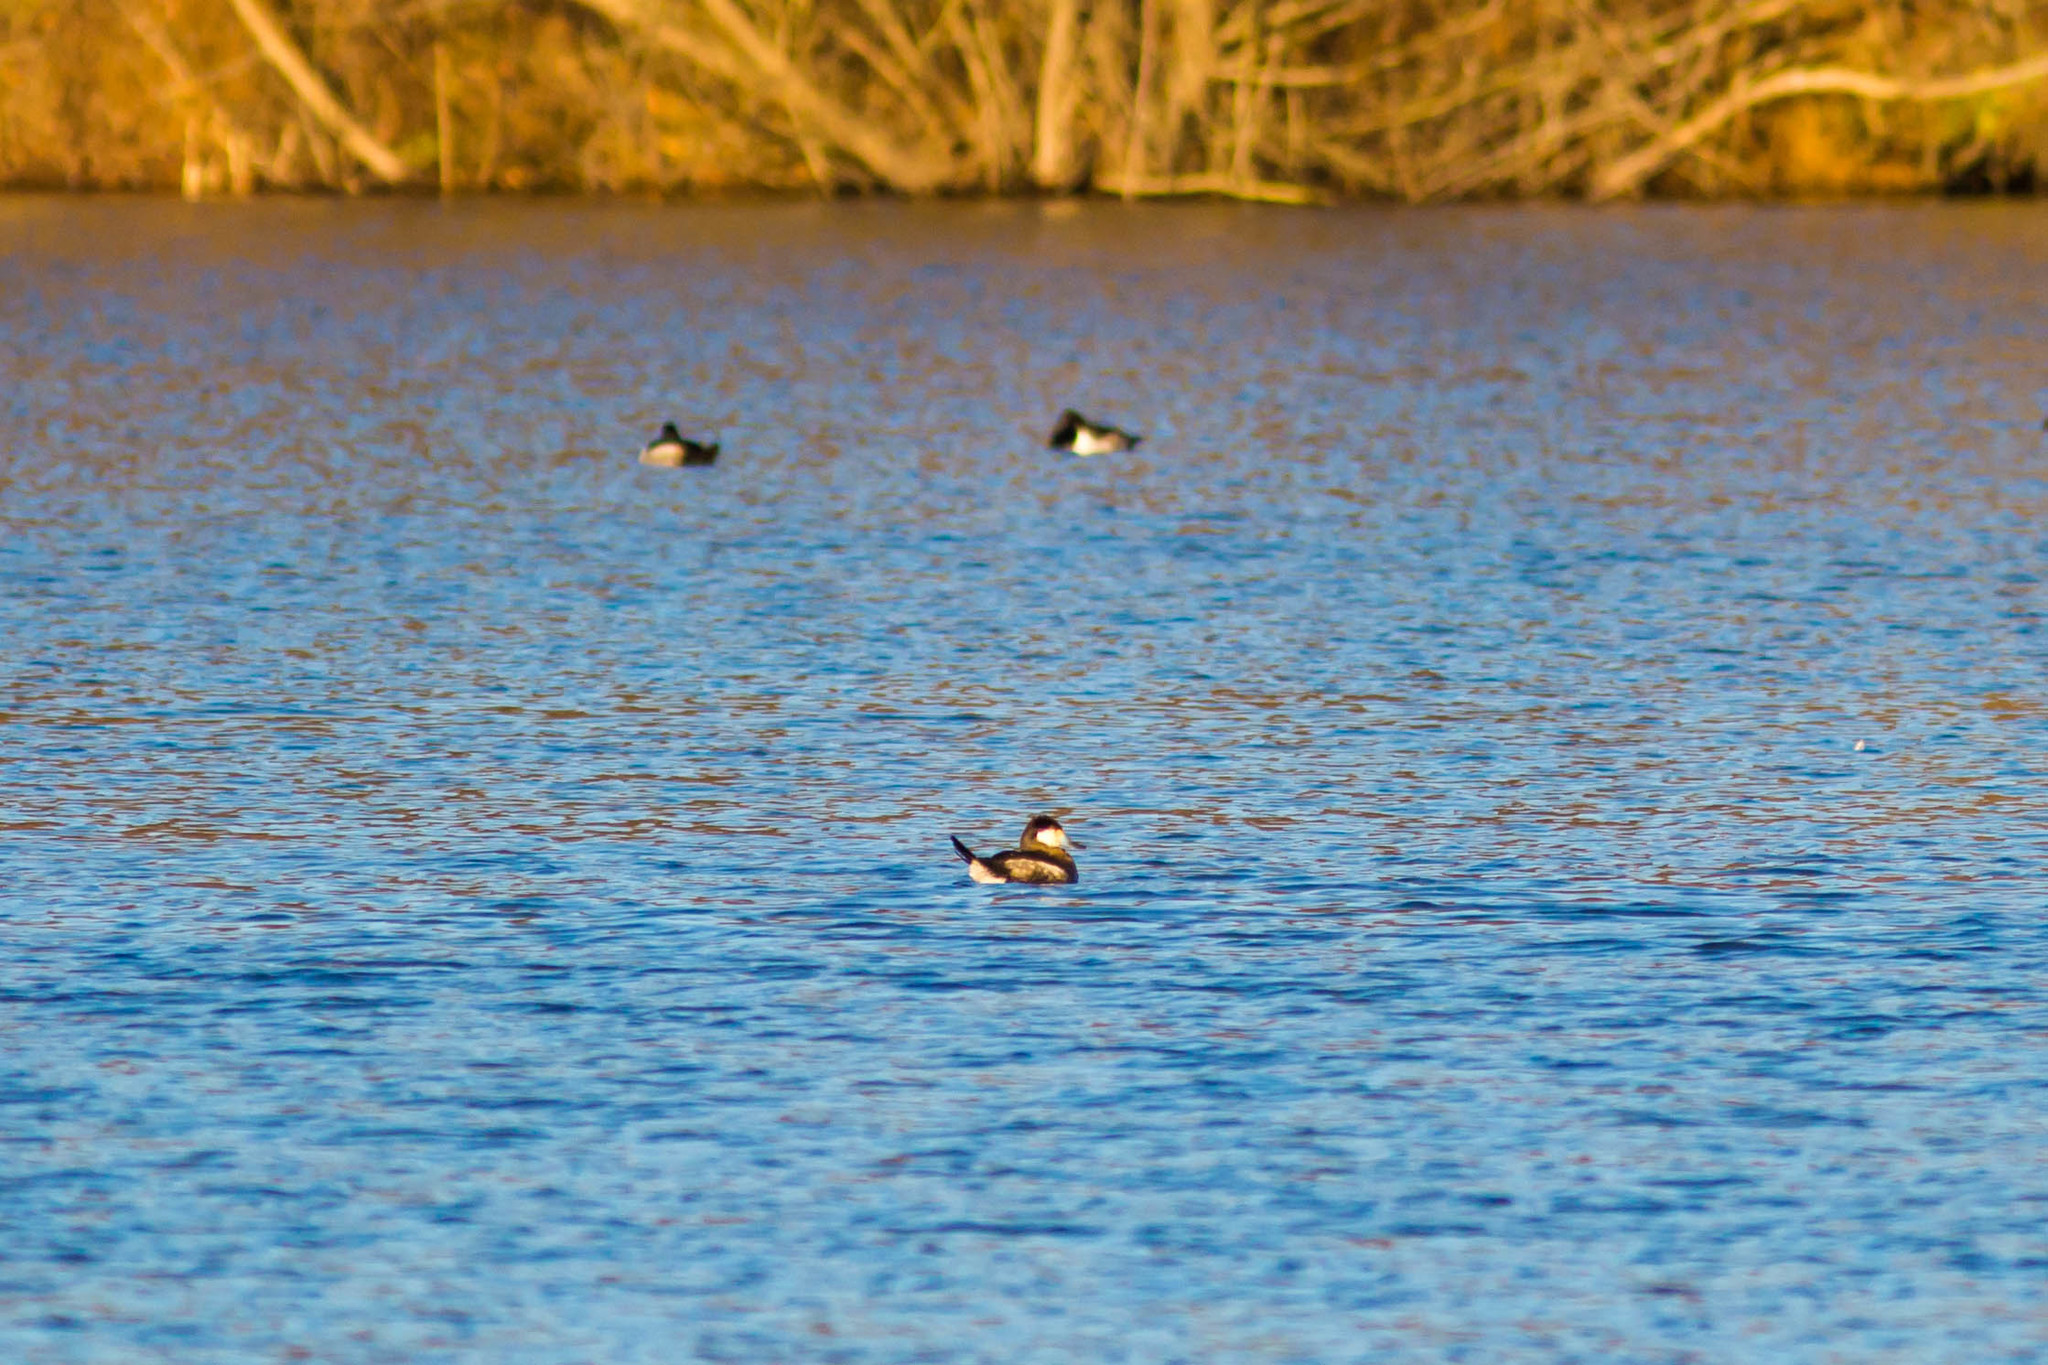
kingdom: Animalia
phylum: Chordata
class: Aves
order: Anseriformes
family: Anatidae
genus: Oxyura
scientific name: Oxyura jamaicensis
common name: Ruddy duck
